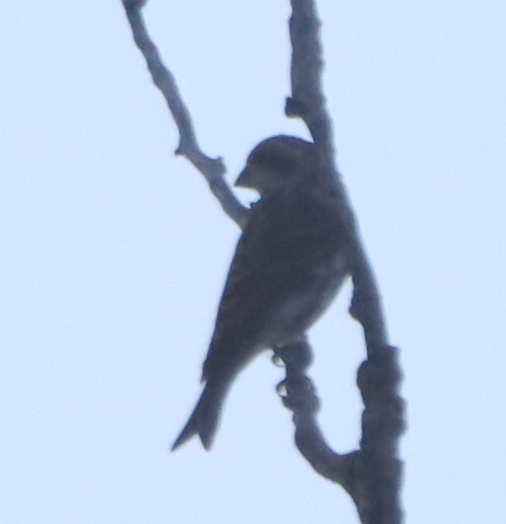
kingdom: Animalia
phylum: Chordata
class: Aves
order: Passeriformes
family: Fringillidae
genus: Haemorhous
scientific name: Haemorhous purpureus
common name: Purple finch
